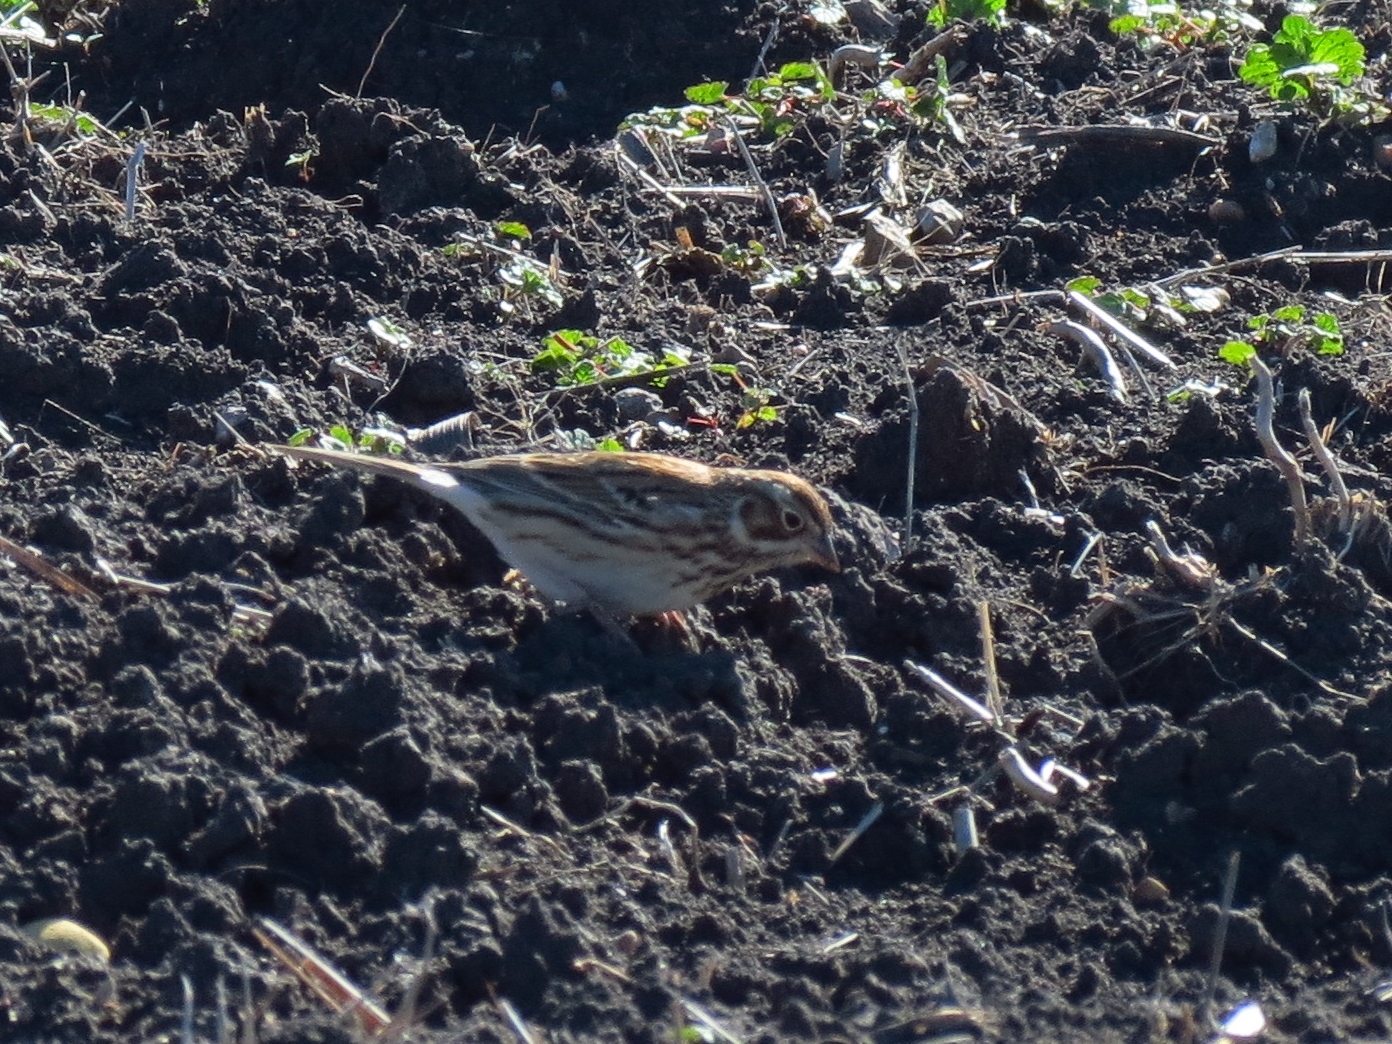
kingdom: Animalia
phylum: Chordata
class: Aves
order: Passeriformes
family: Passerellidae
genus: Pooecetes
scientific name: Pooecetes gramineus
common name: Vesper sparrow
